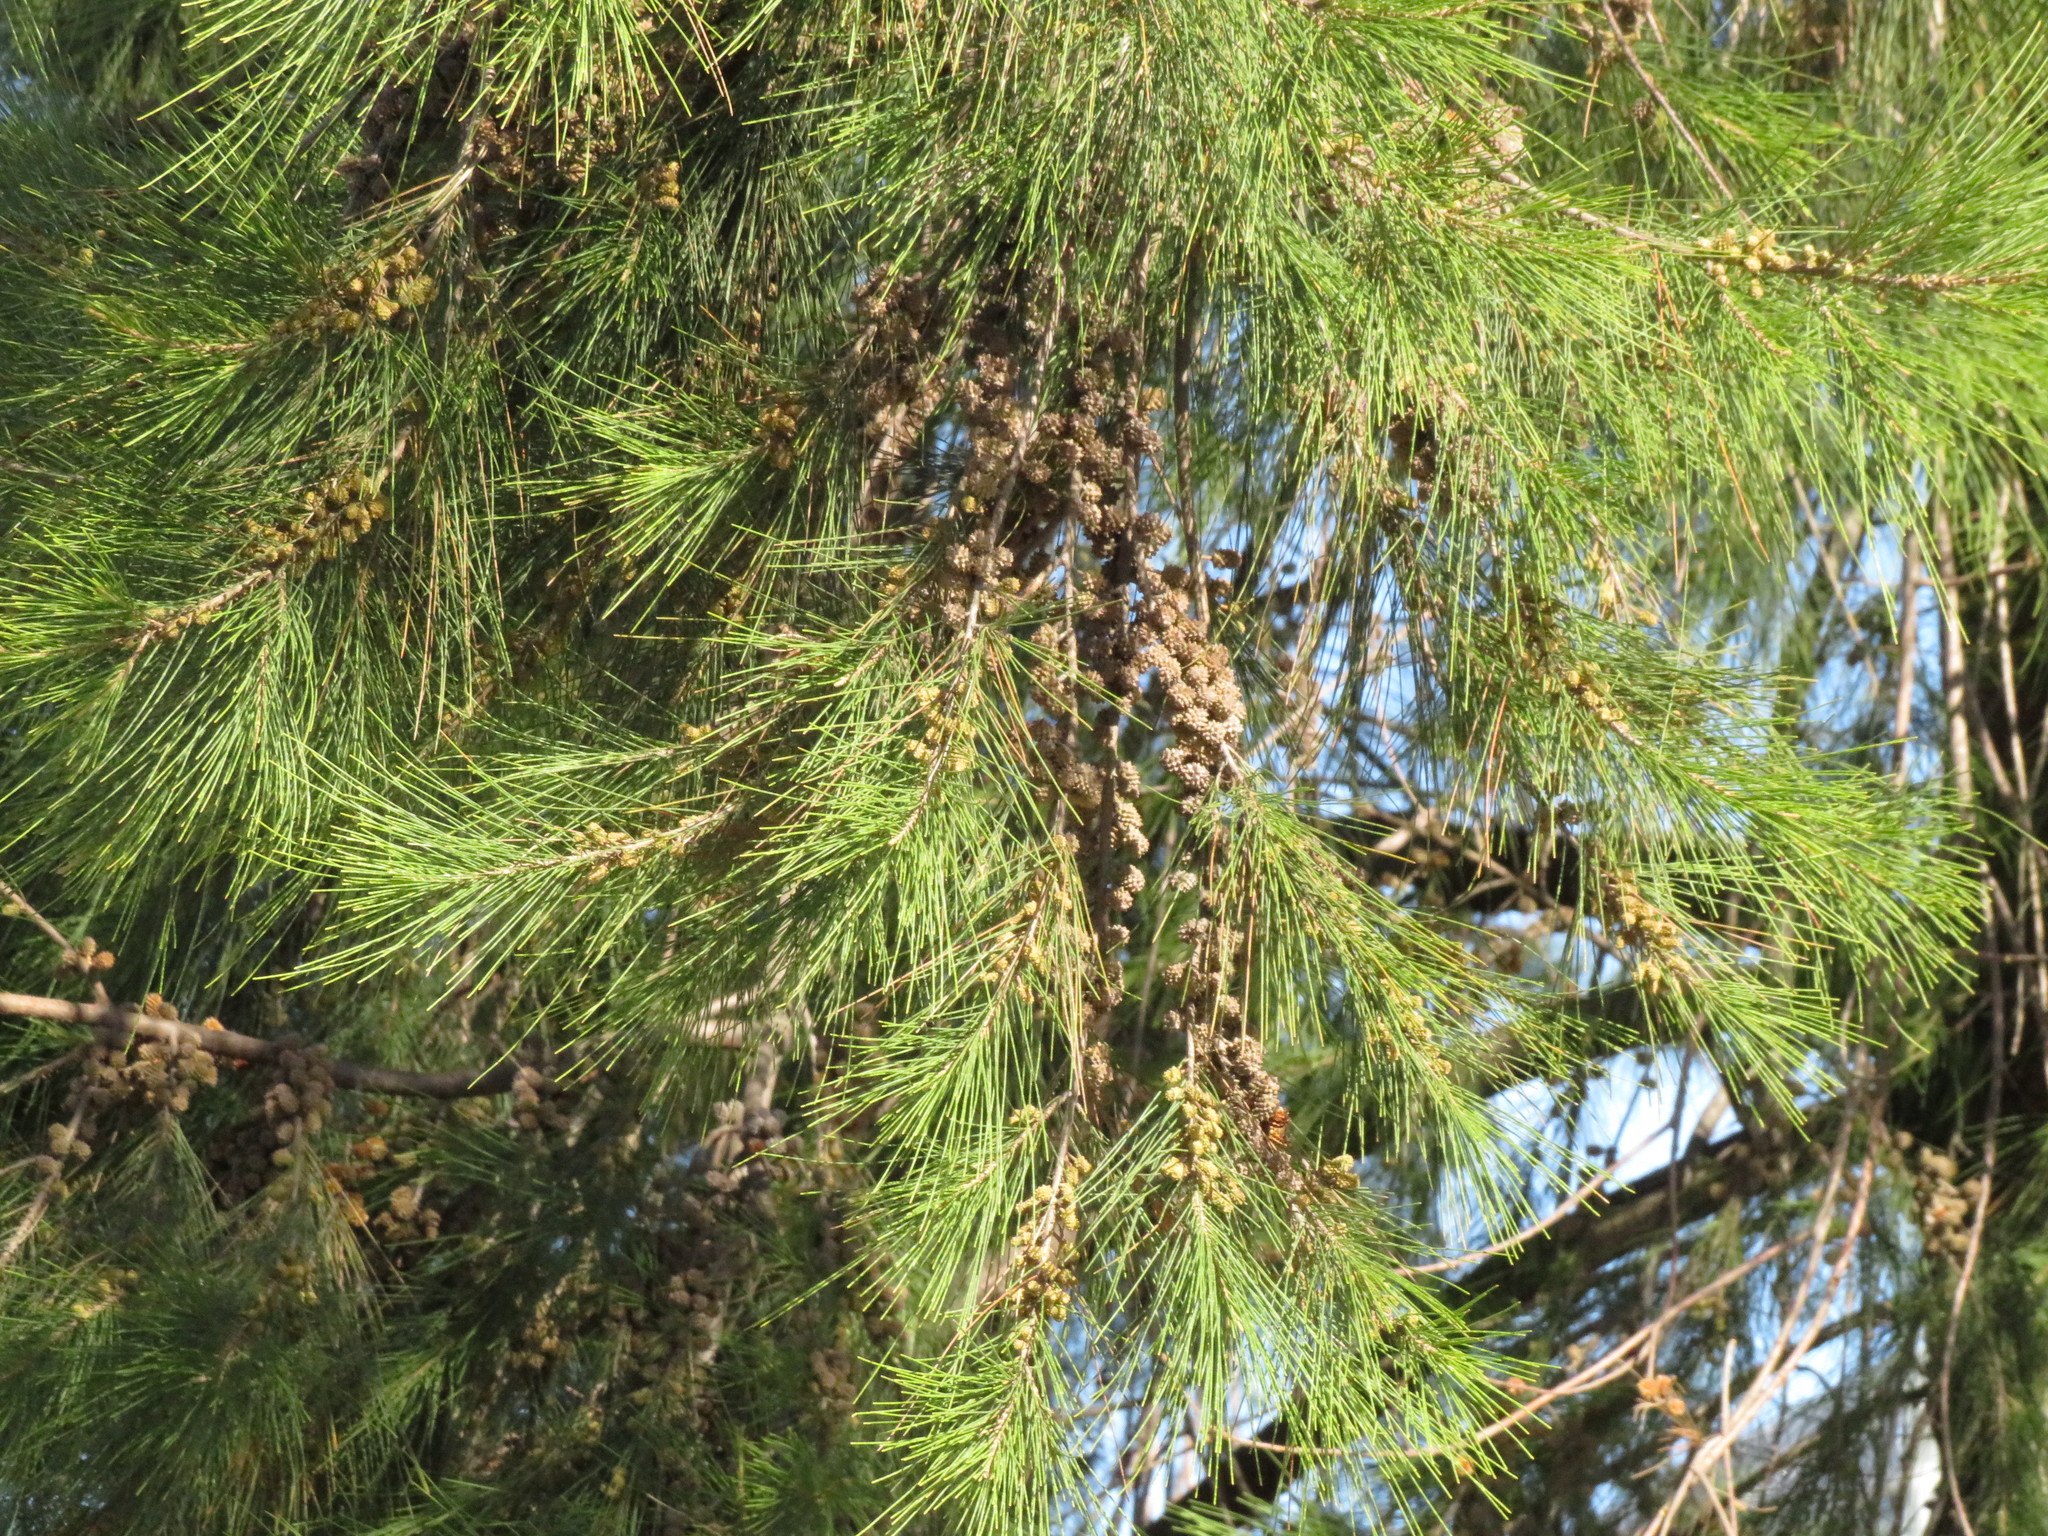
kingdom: Plantae
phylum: Tracheophyta
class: Magnoliopsida
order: Fagales
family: Casuarinaceae
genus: Casuarina
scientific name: Casuarina cunninghamiana
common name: River sheoak
